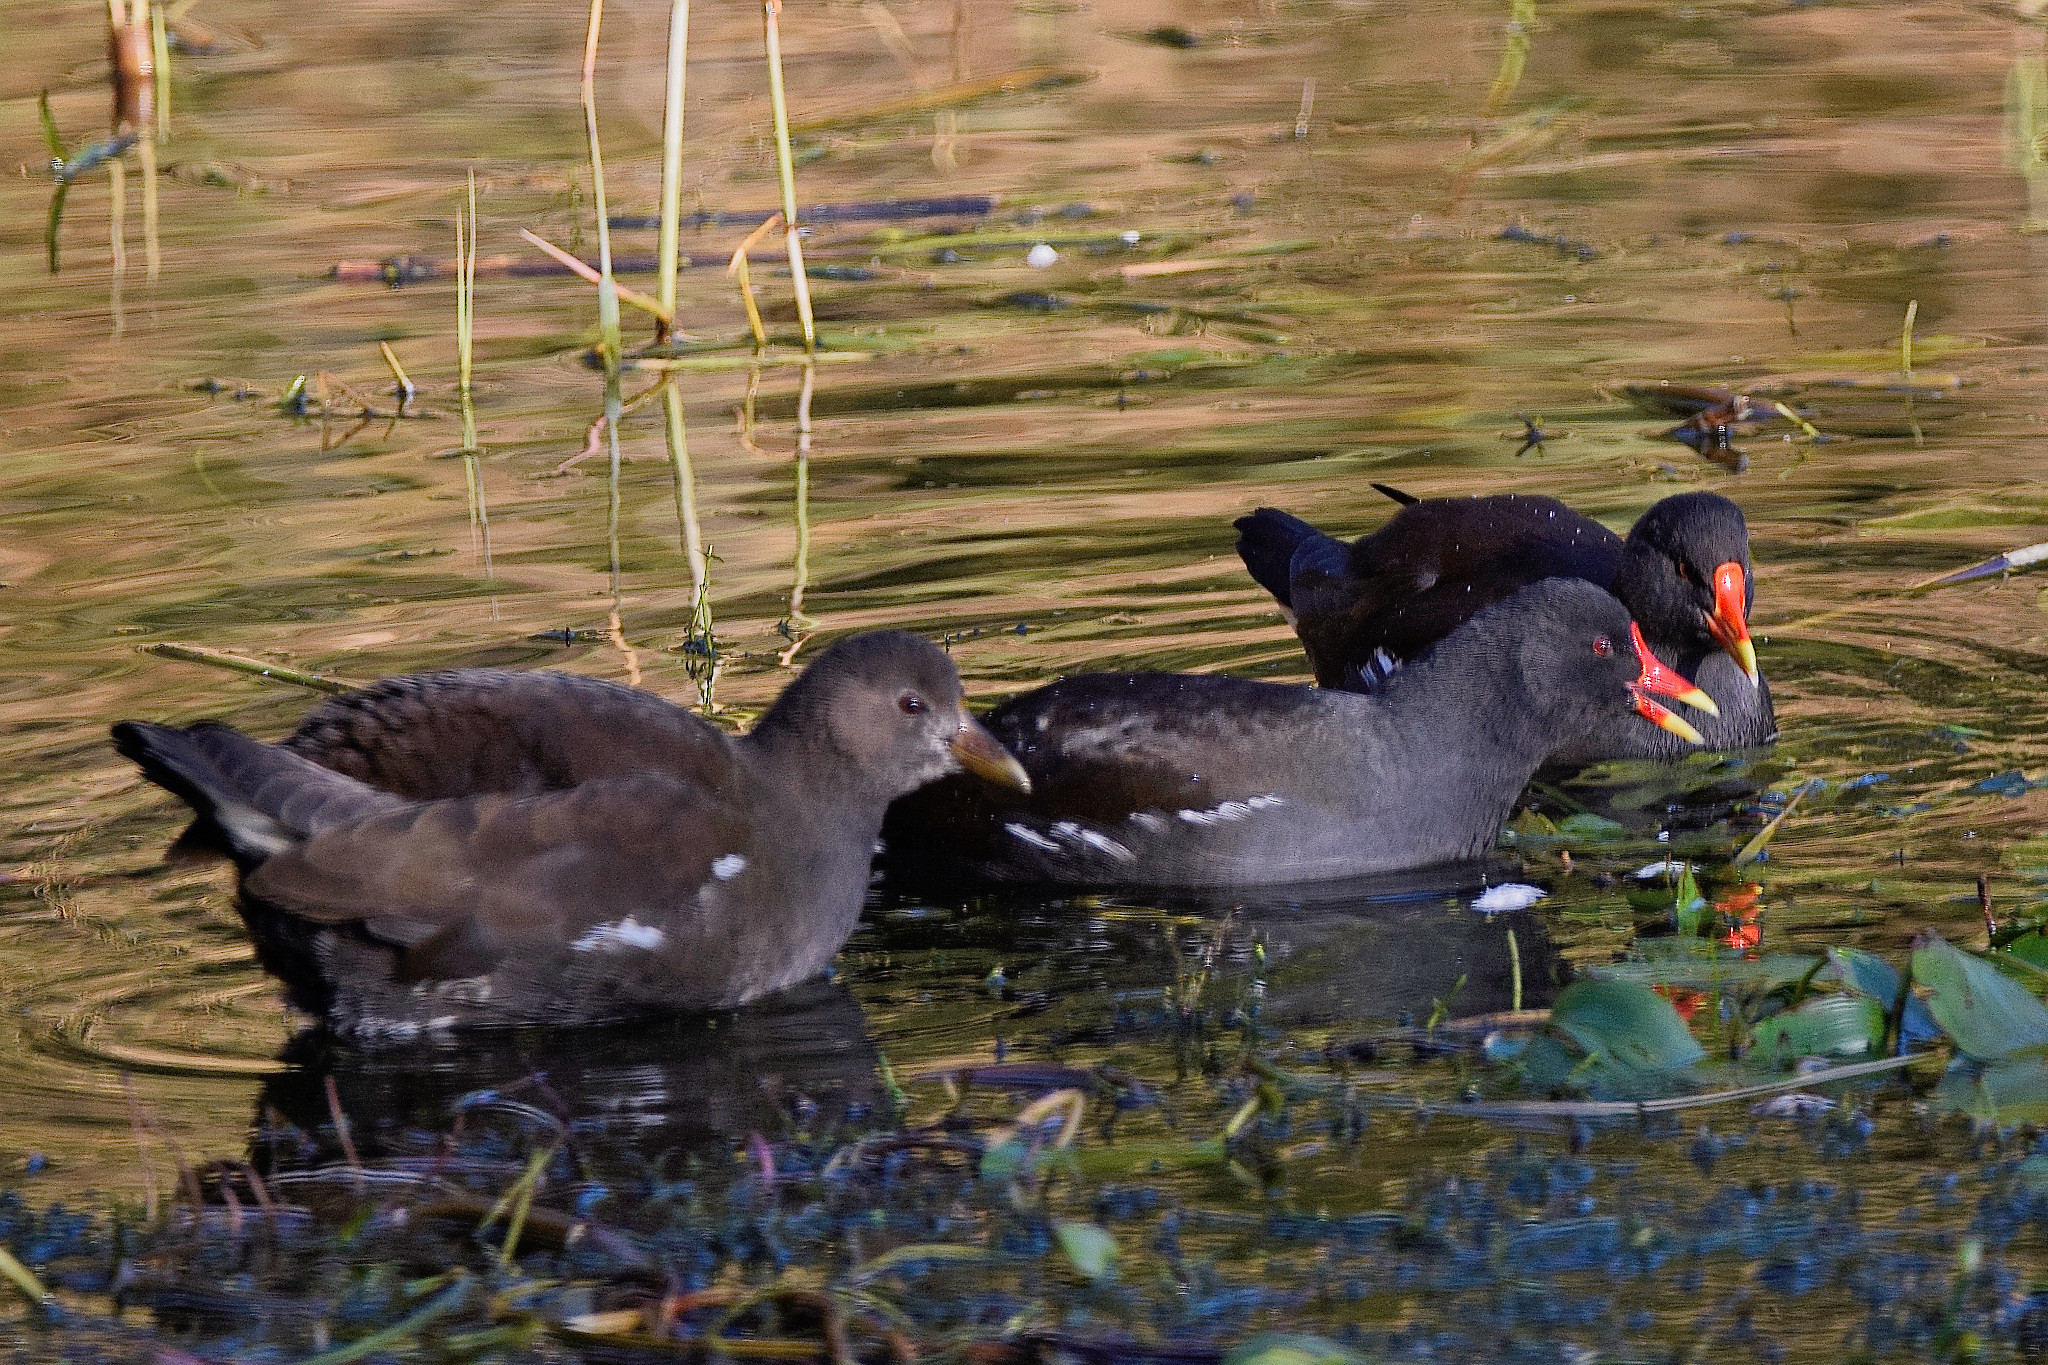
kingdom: Animalia
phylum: Chordata
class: Aves
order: Gruiformes
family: Rallidae
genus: Gallinula
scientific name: Gallinula chloropus
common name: Common moorhen
